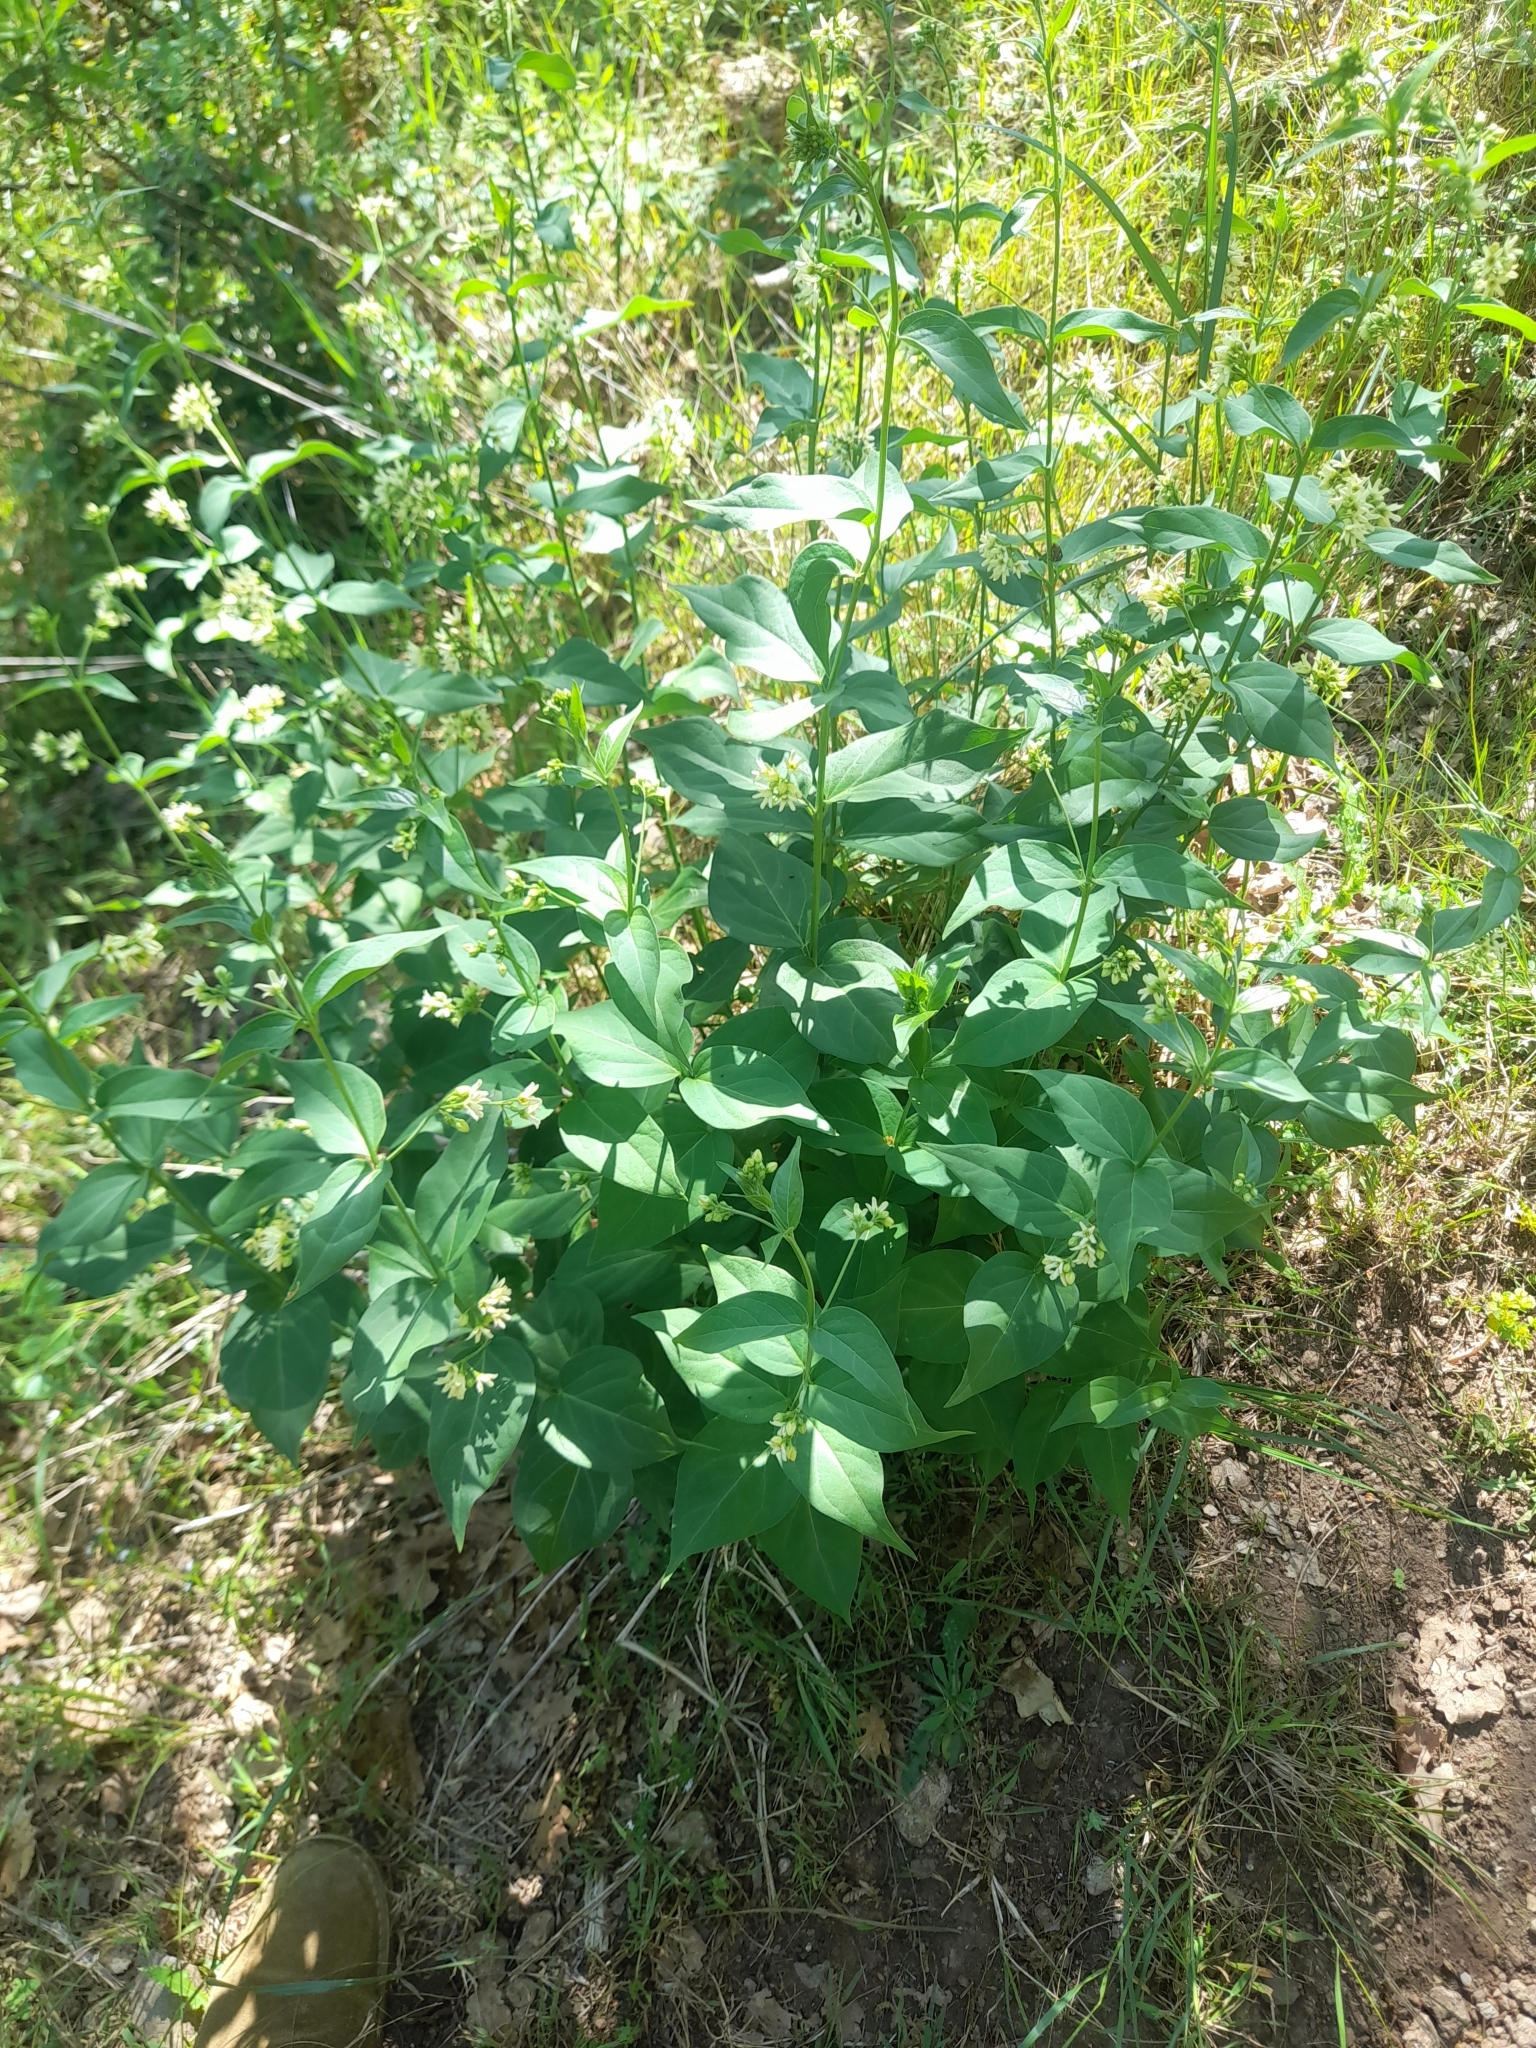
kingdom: Plantae
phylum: Tracheophyta
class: Magnoliopsida
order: Gentianales
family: Apocynaceae
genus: Vincetoxicum
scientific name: Vincetoxicum hirundinaria
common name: White swallowwort
